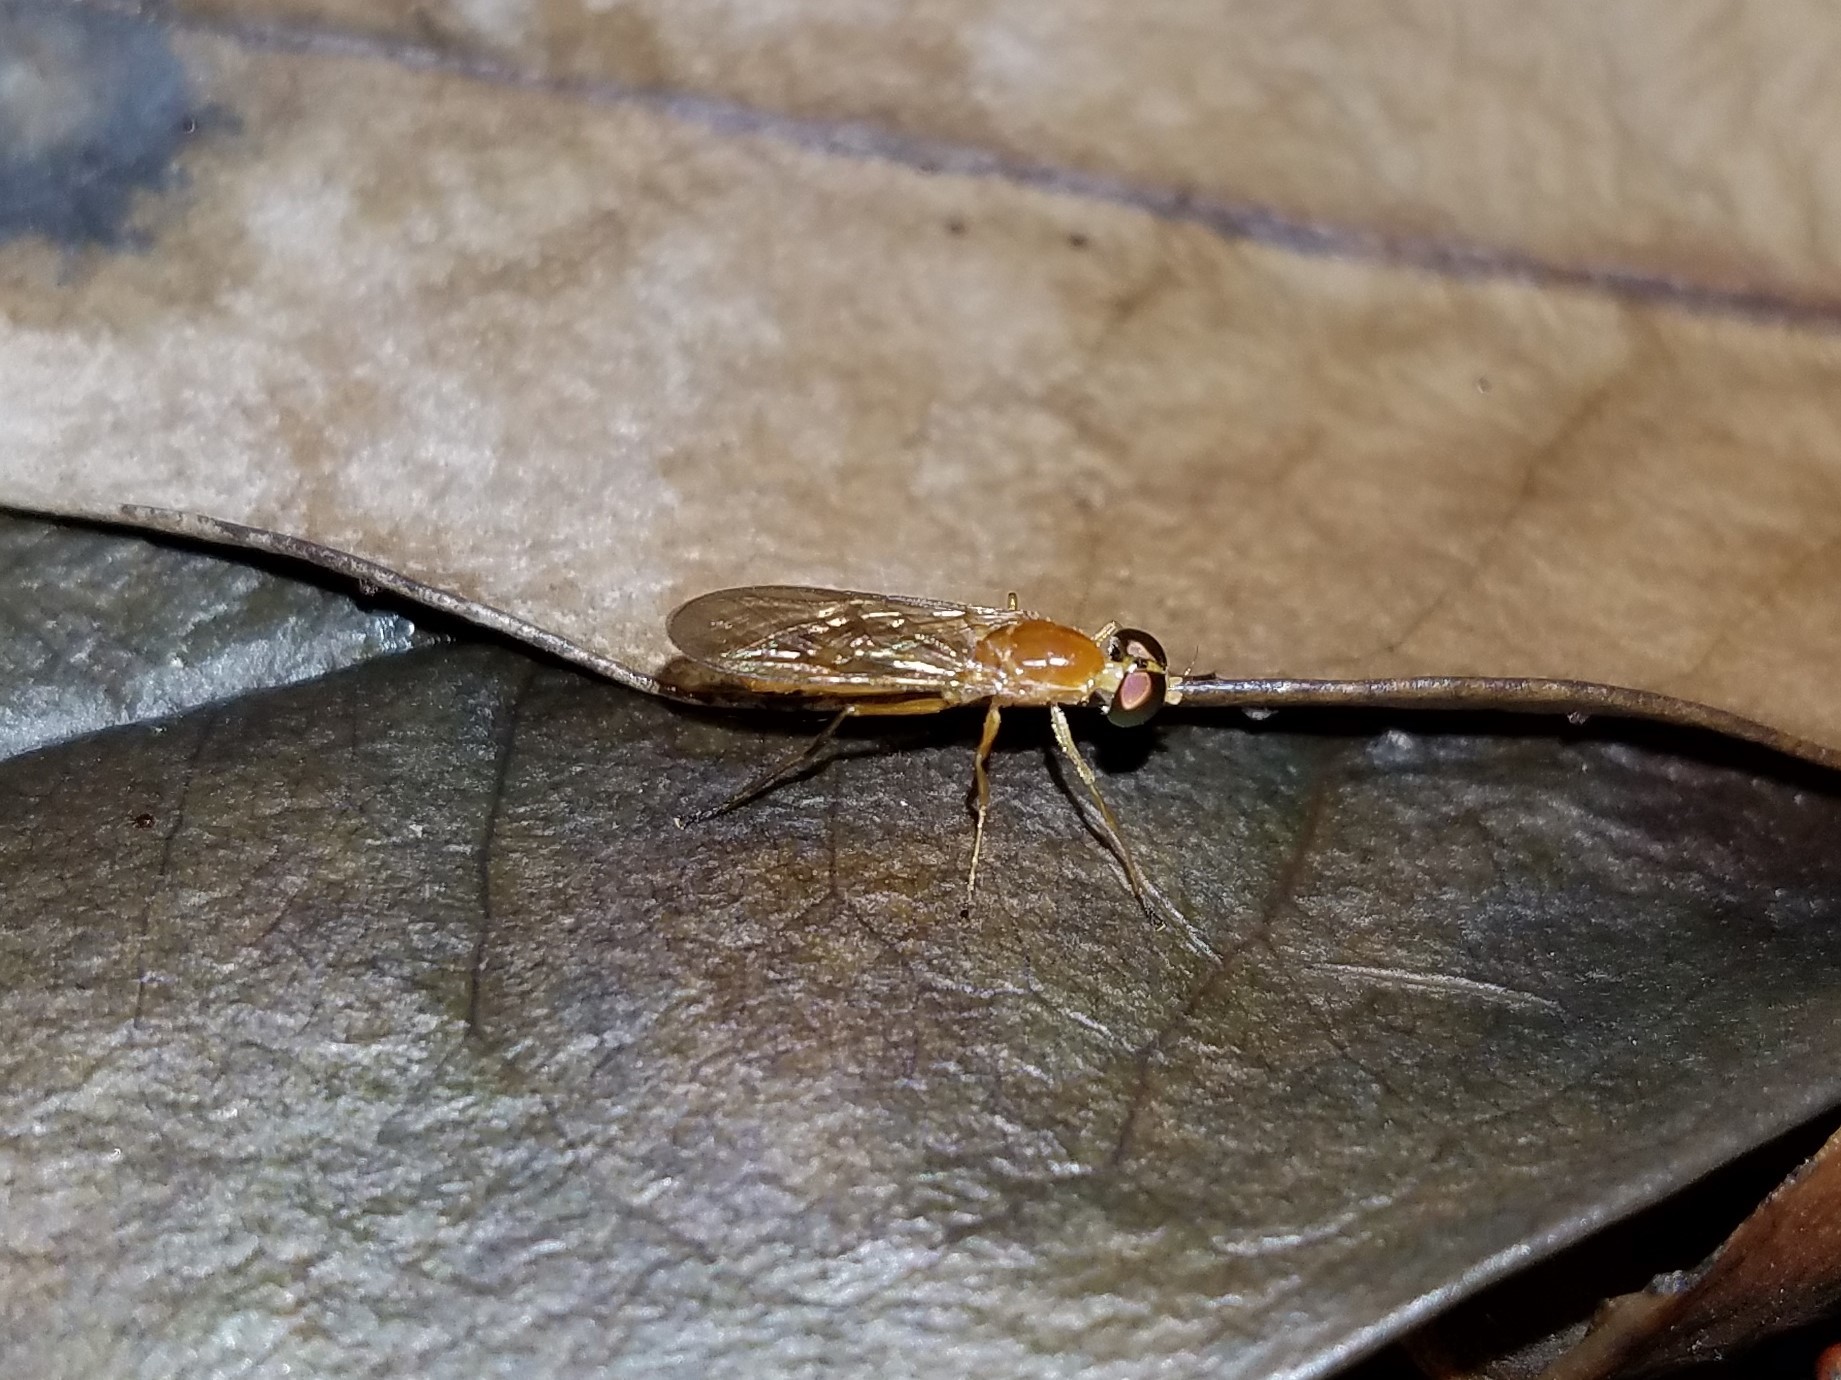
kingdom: Animalia
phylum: Arthropoda
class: Insecta
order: Diptera
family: Stratiomyidae
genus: Ptecticus
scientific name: Ptecticus trivittatus
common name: Compost fly
